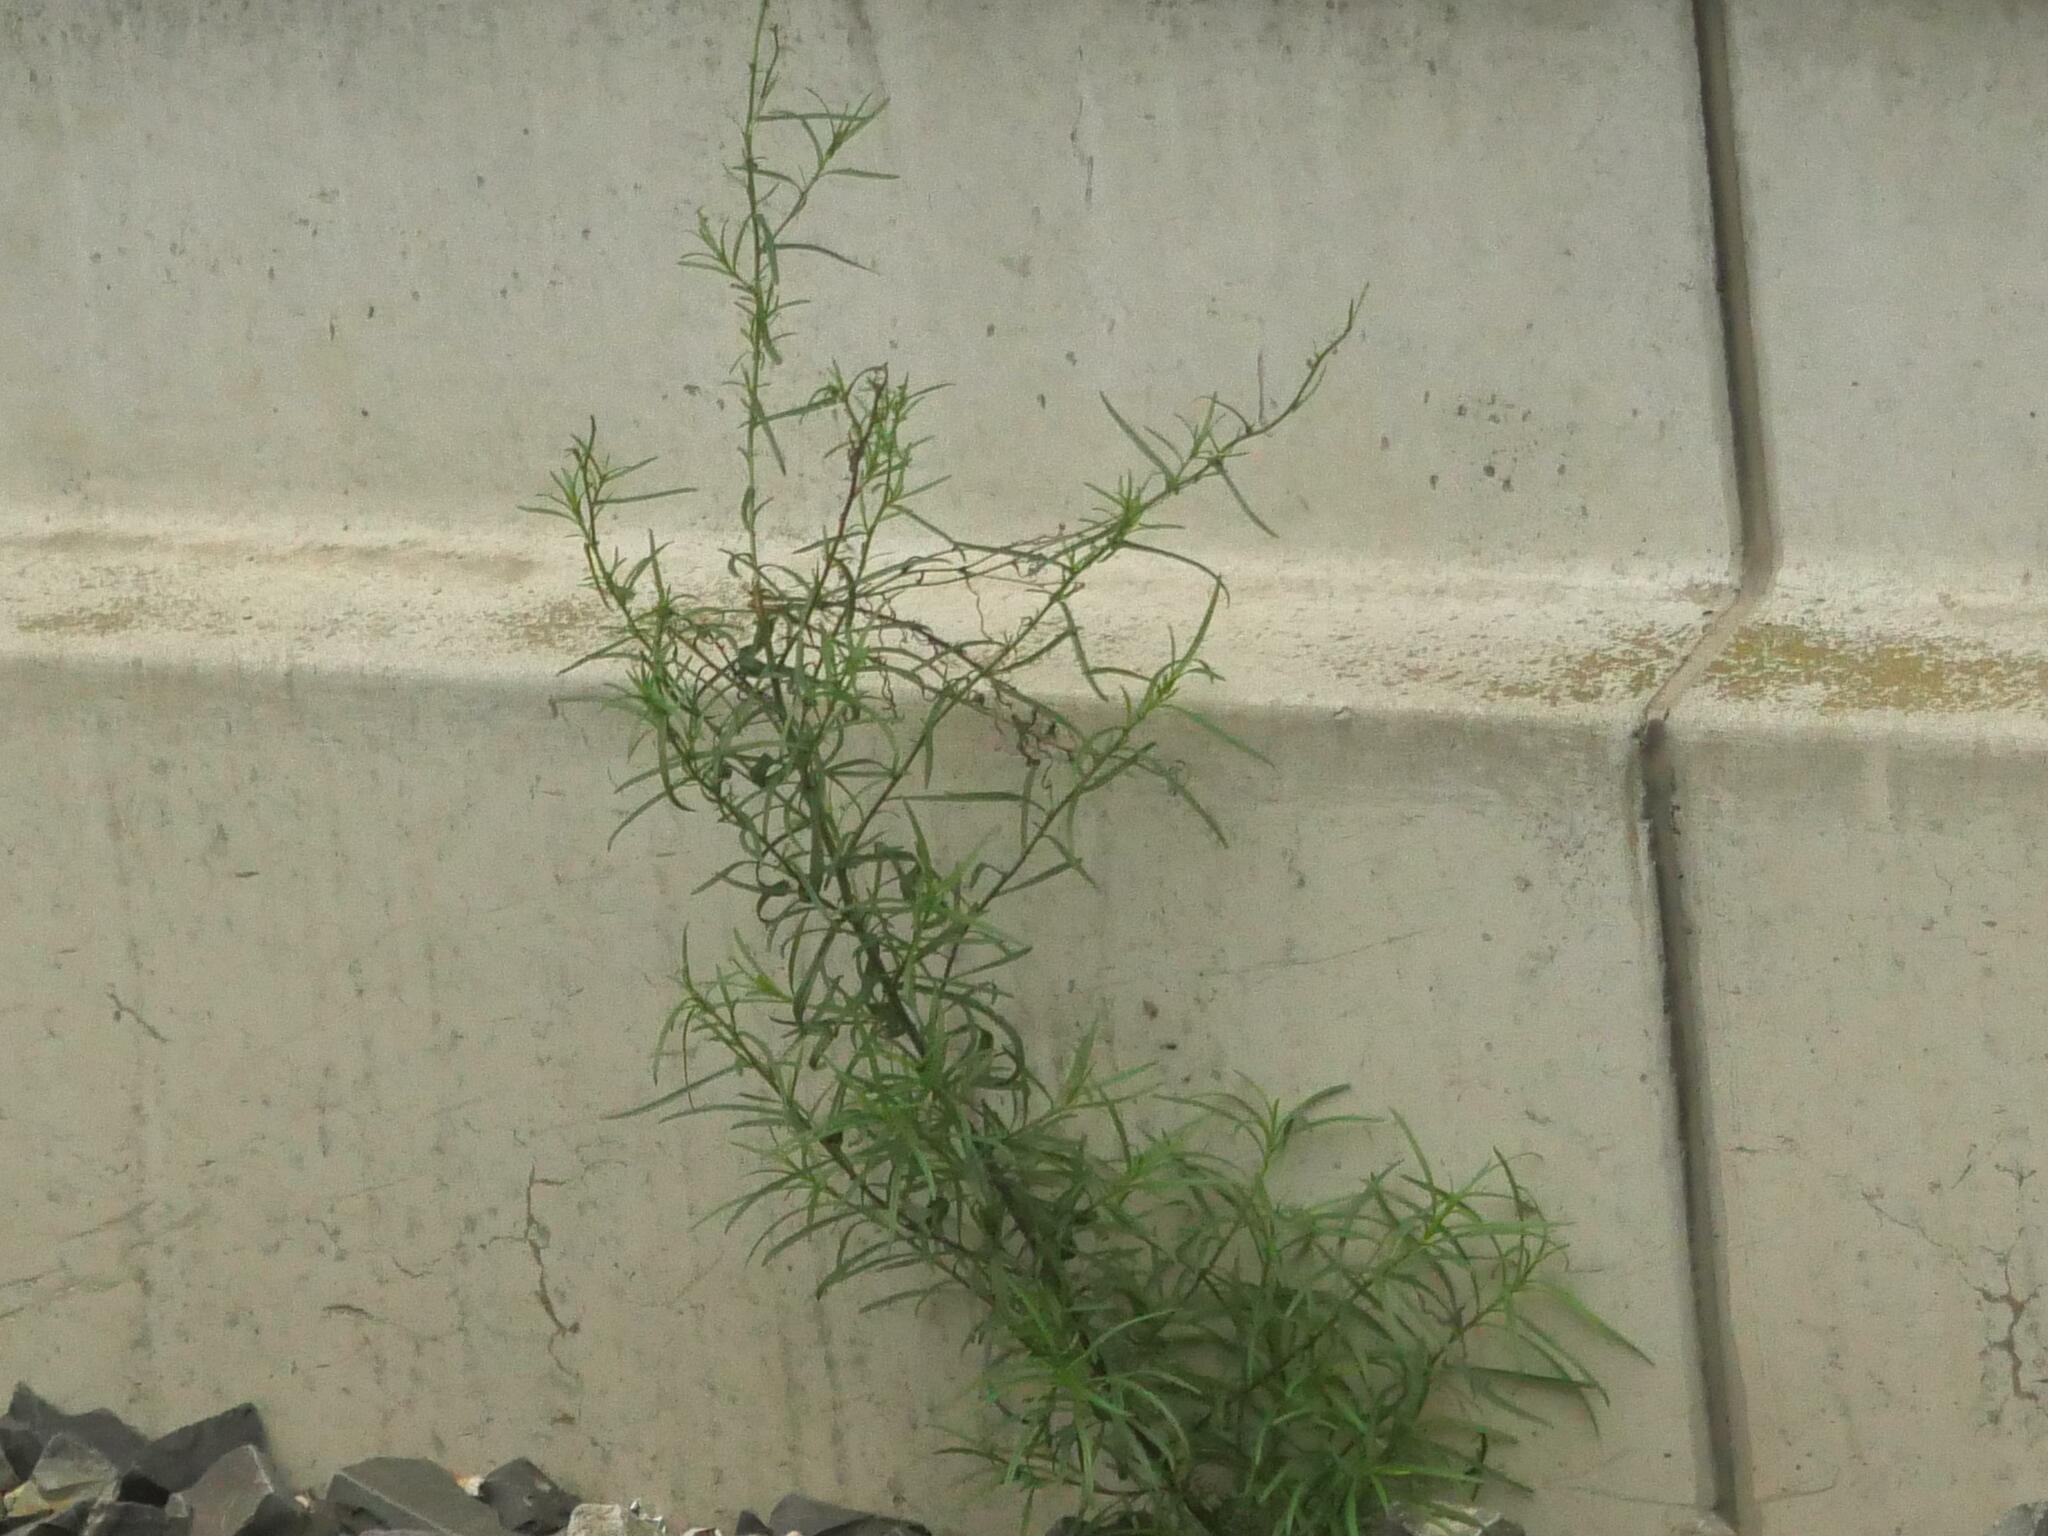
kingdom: Plantae
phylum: Tracheophyta
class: Magnoliopsida
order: Asterales
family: Asteraceae
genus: Senecio
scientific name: Senecio inaequidens
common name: Narrow-leaved ragwort
